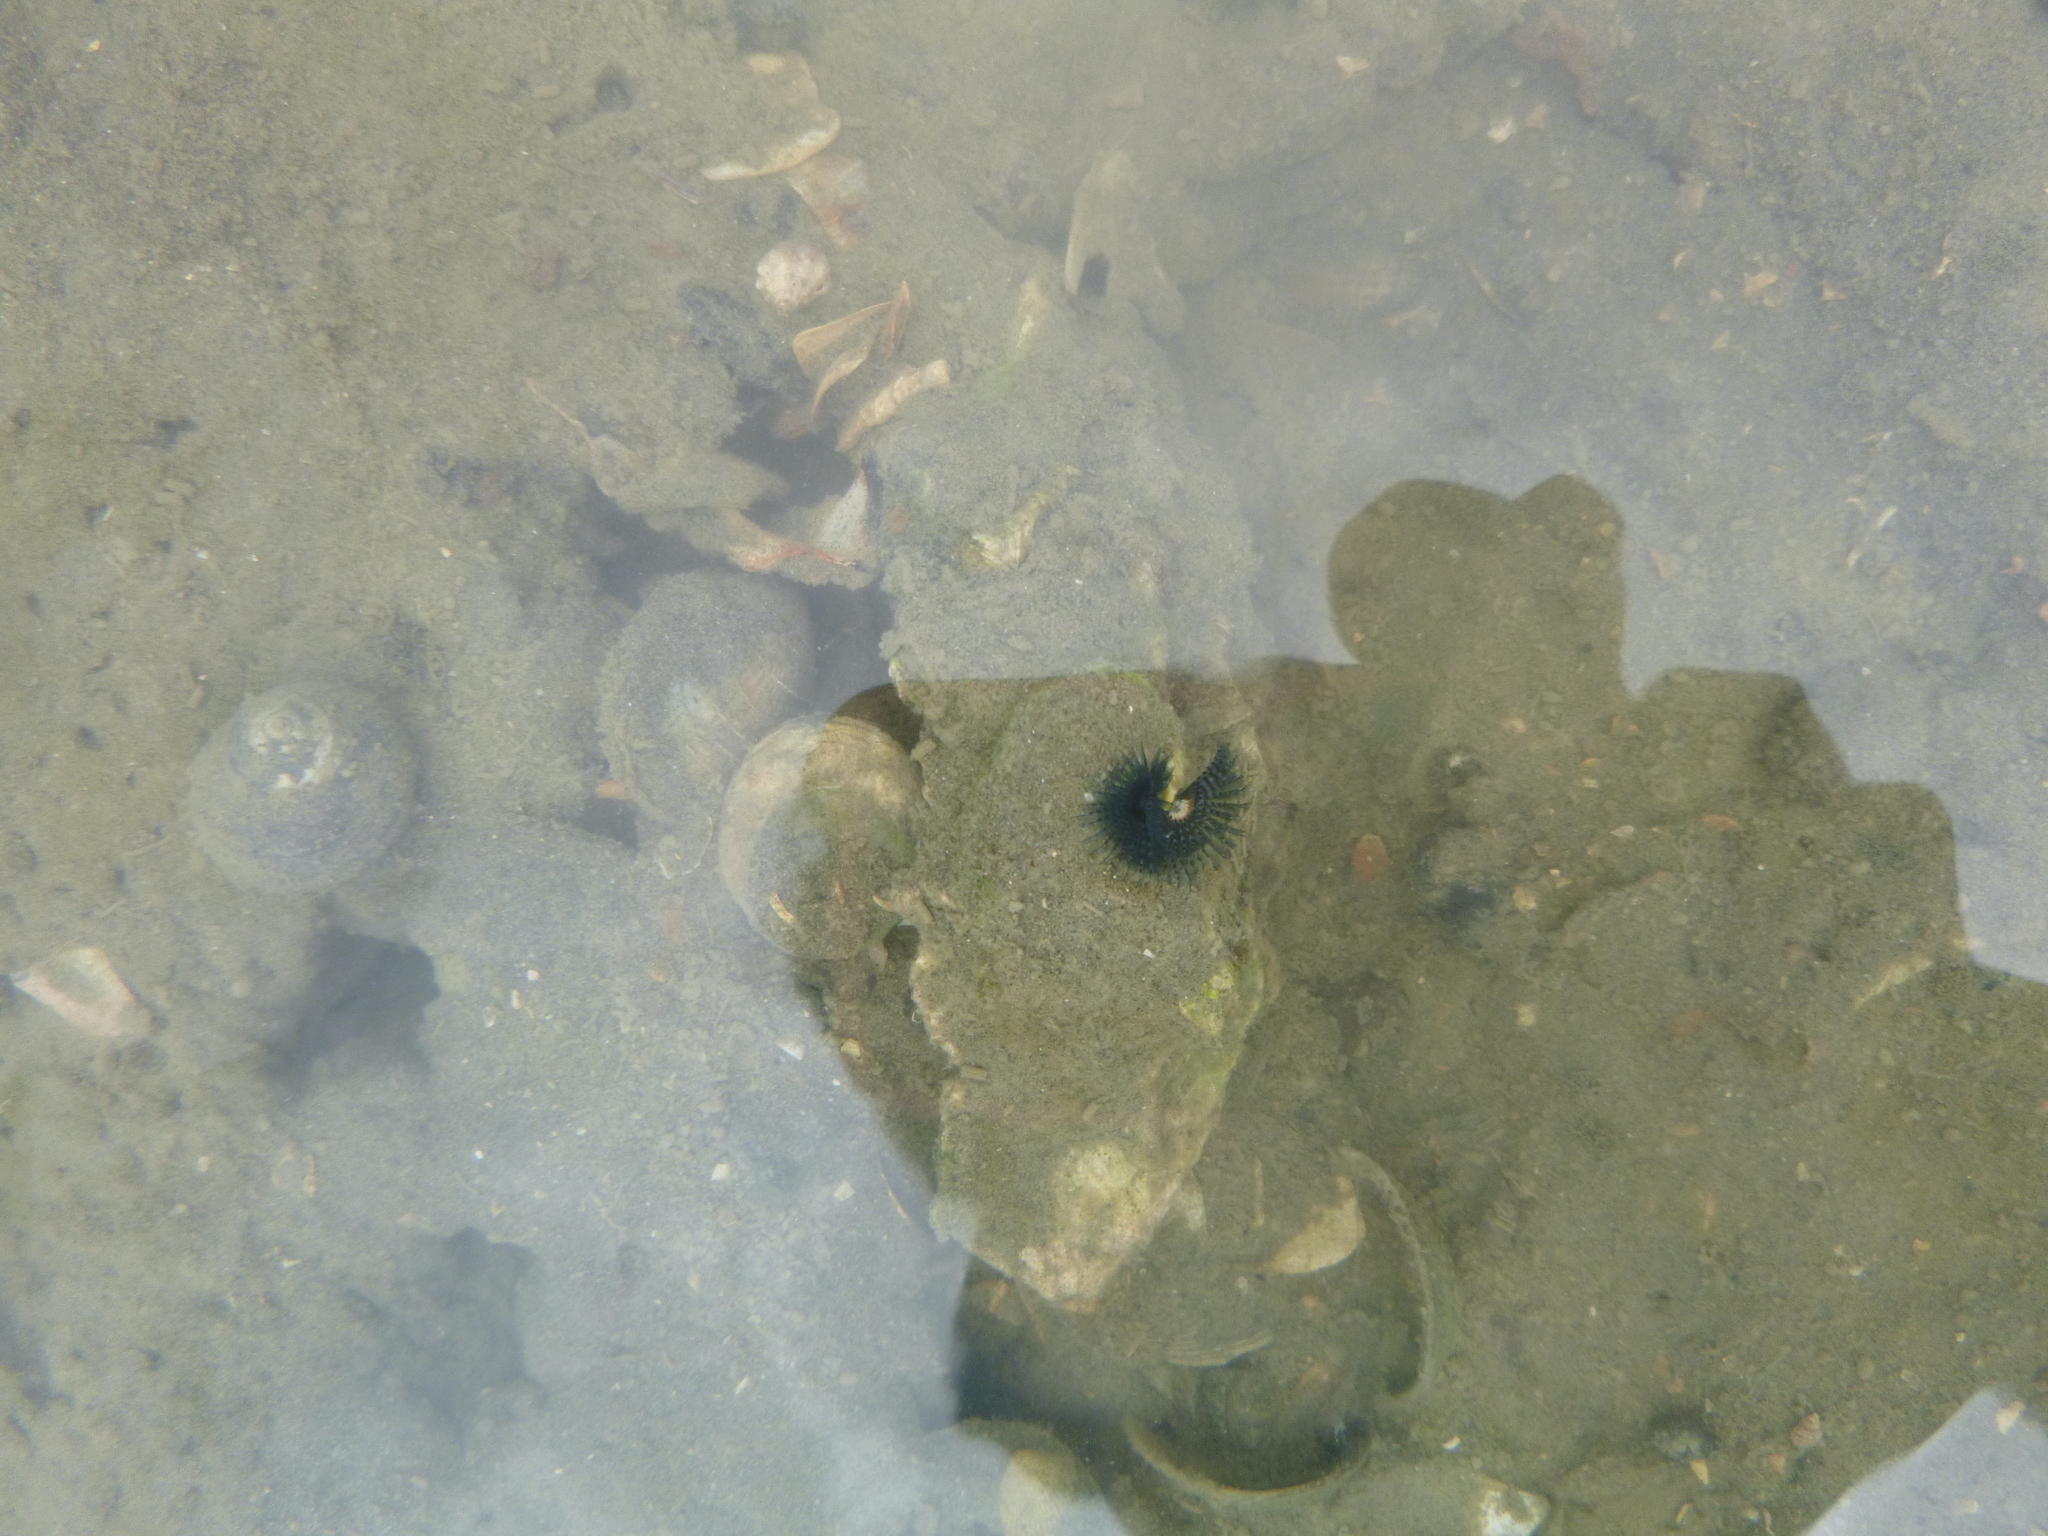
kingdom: Animalia
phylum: Annelida
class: Polychaeta
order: Sabellida
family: Serpulidae
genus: Spirobranchus
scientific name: Spirobranchus cariniferus
